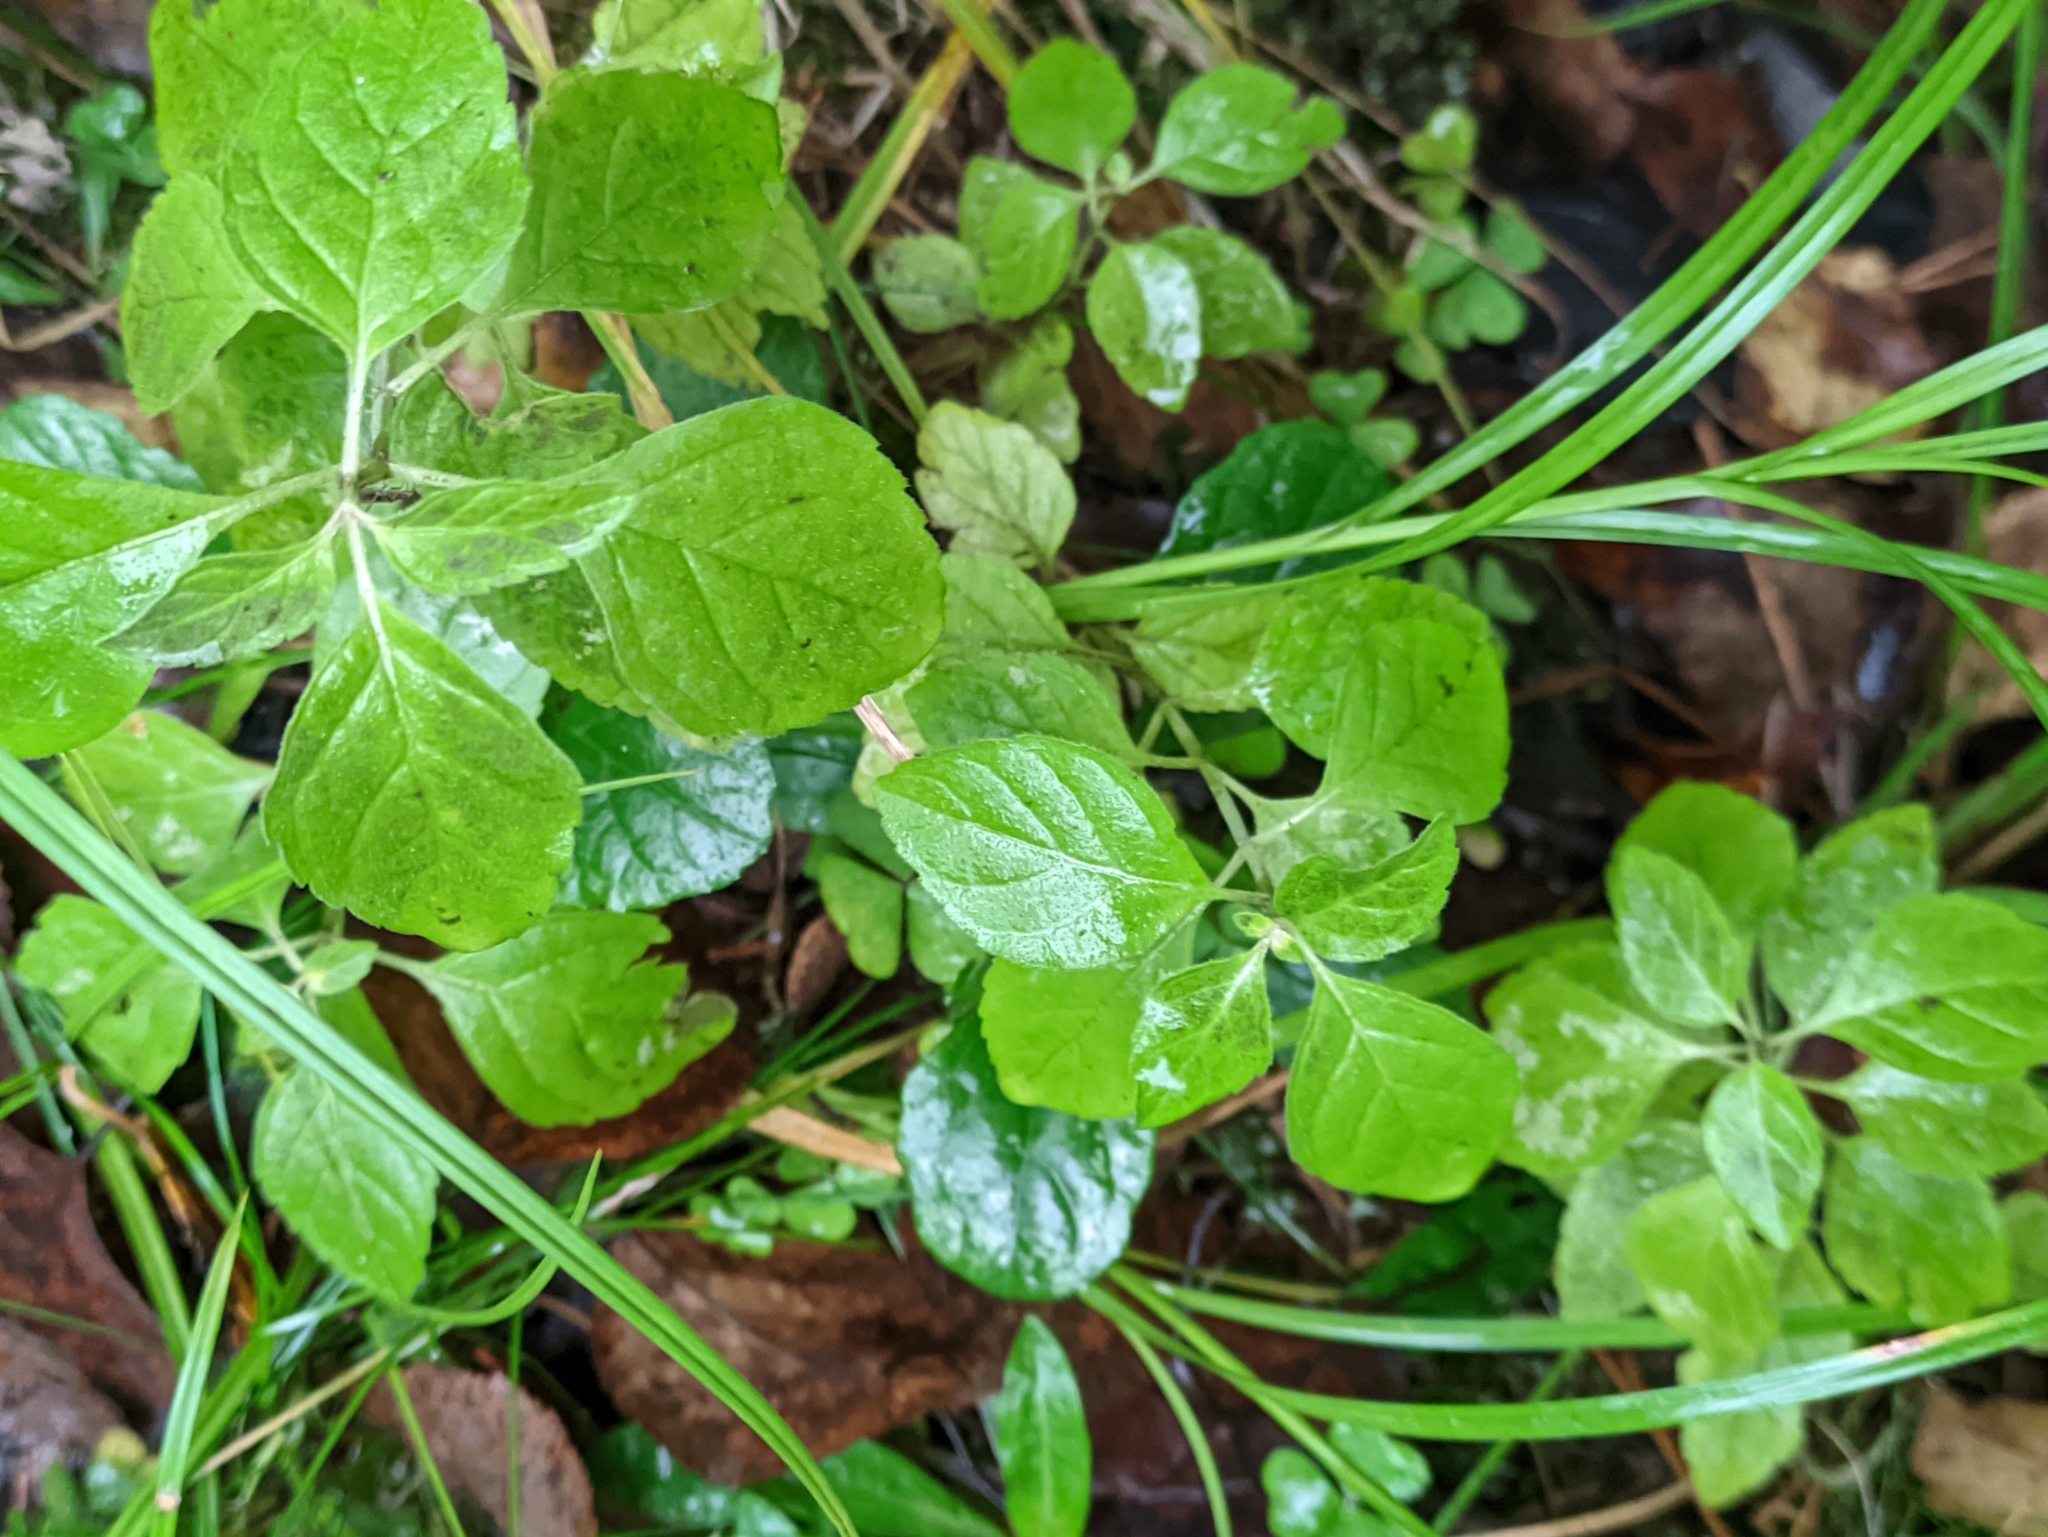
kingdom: Plantae
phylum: Tracheophyta
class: Magnoliopsida
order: Lamiales
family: Lamiaceae
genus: Mentha
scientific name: Mentha arvensis
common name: Corn mint
